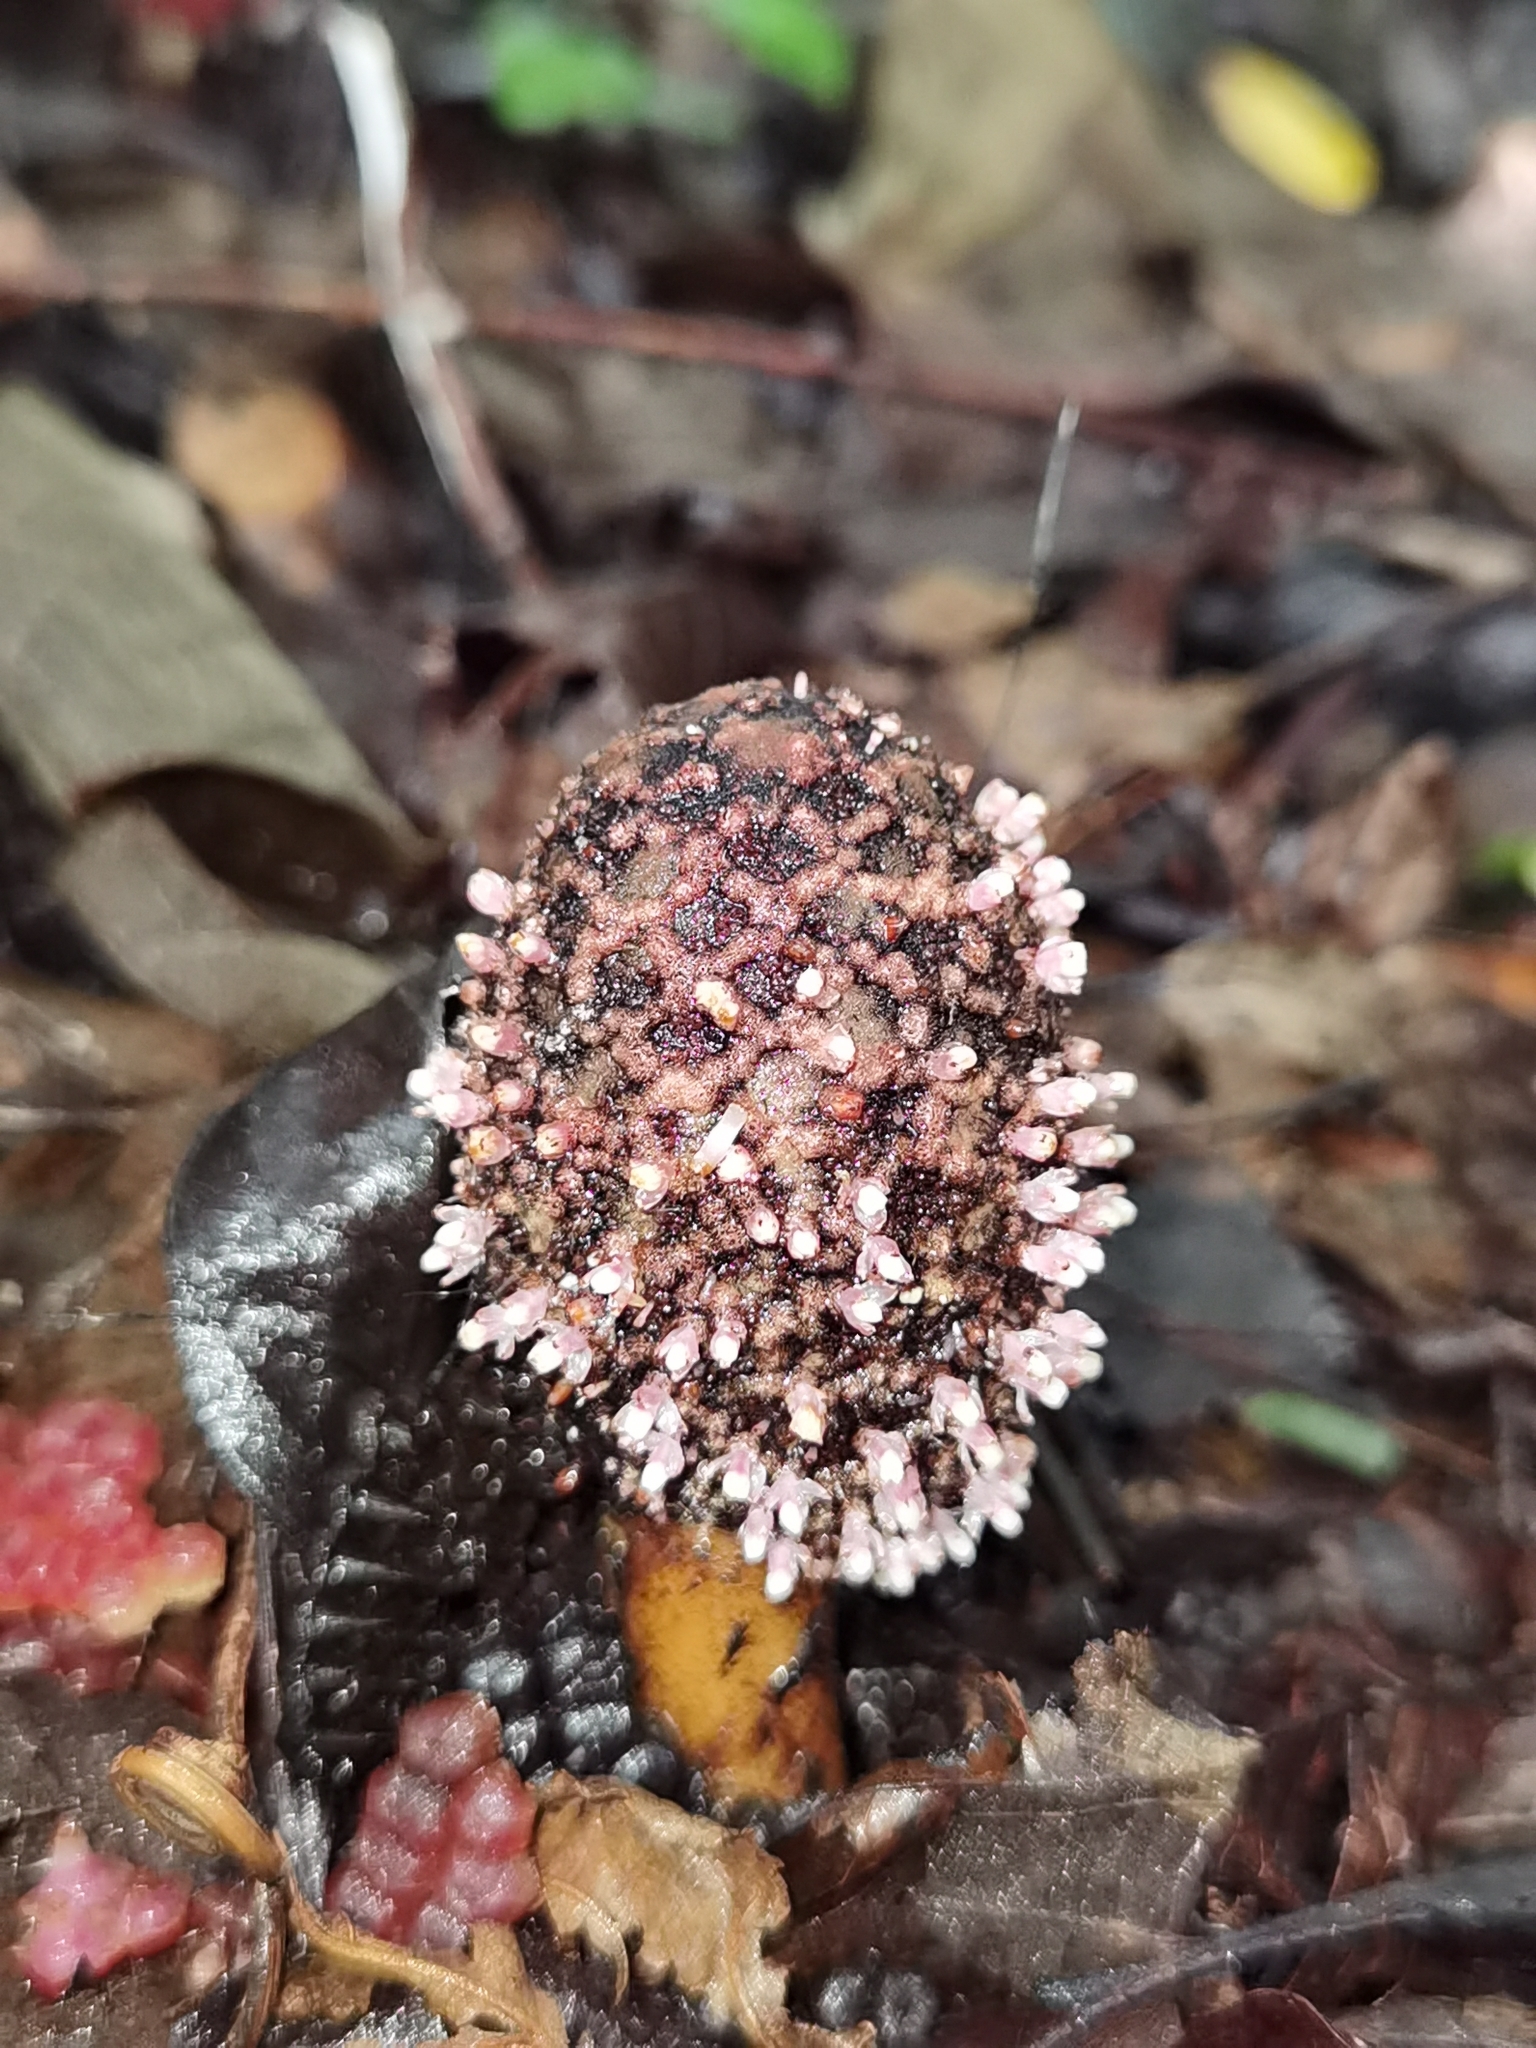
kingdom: Plantae
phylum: Tracheophyta
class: Magnoliopsida
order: Santalales
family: Balanophoraceae
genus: Helosis
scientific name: Helosis cayennensis
